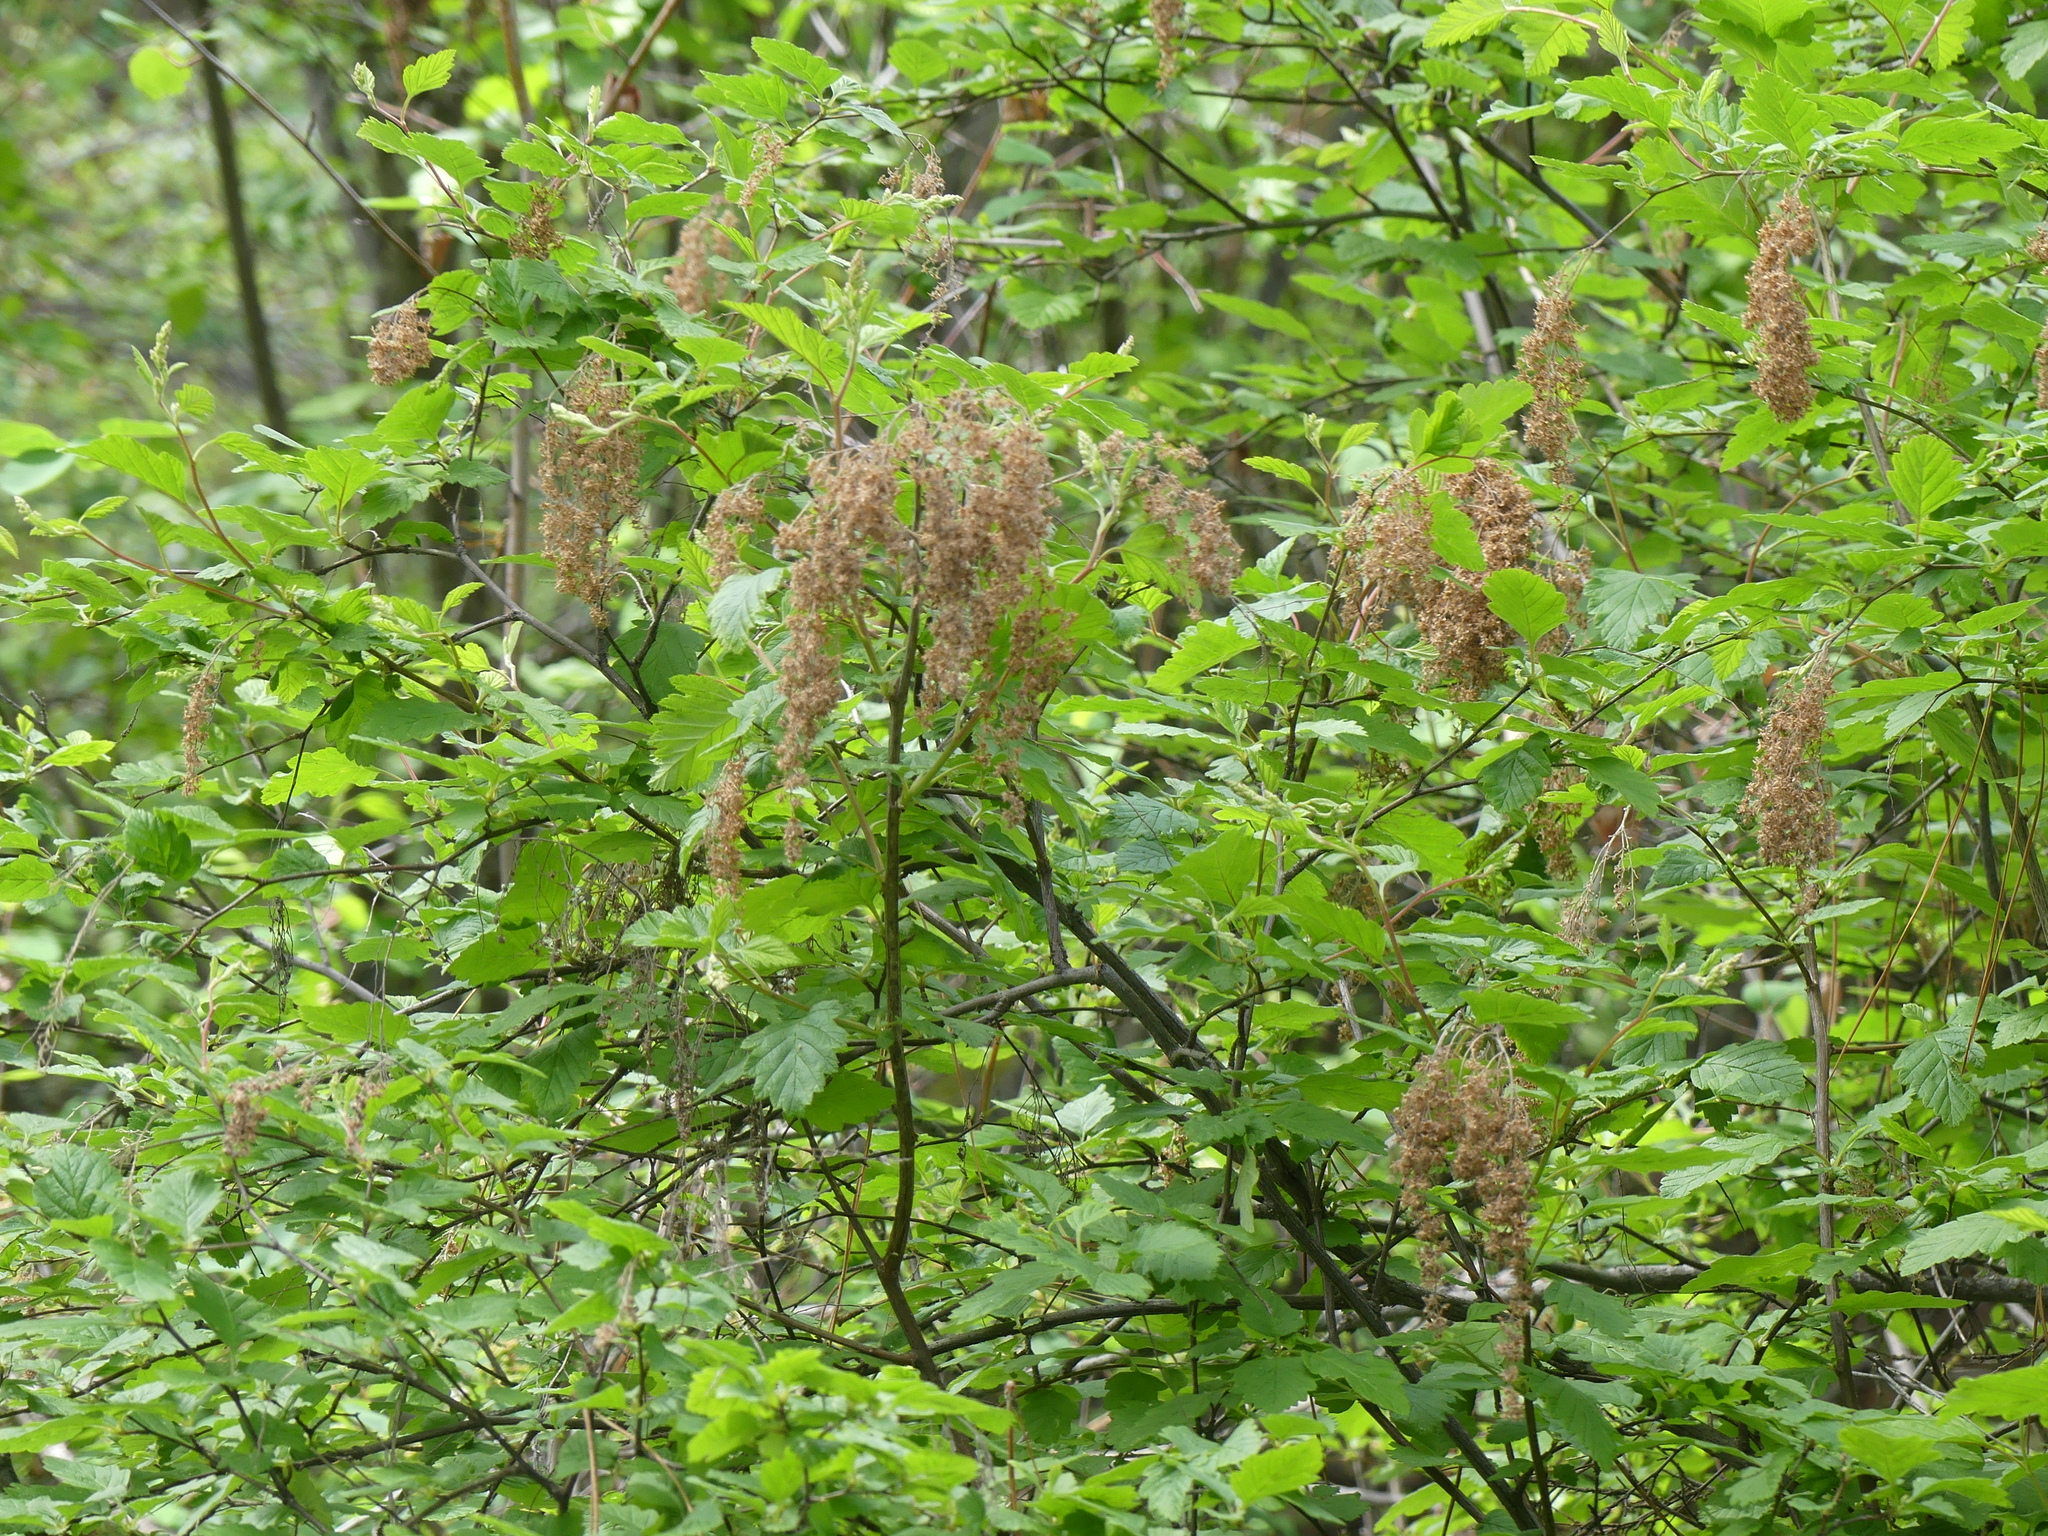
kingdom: Plantae
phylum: Tracheophyta
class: Magnoliopsida
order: Rosales
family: Rosaceae
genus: Holodiscus
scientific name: Holodiscus discolor
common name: Oceanspray
